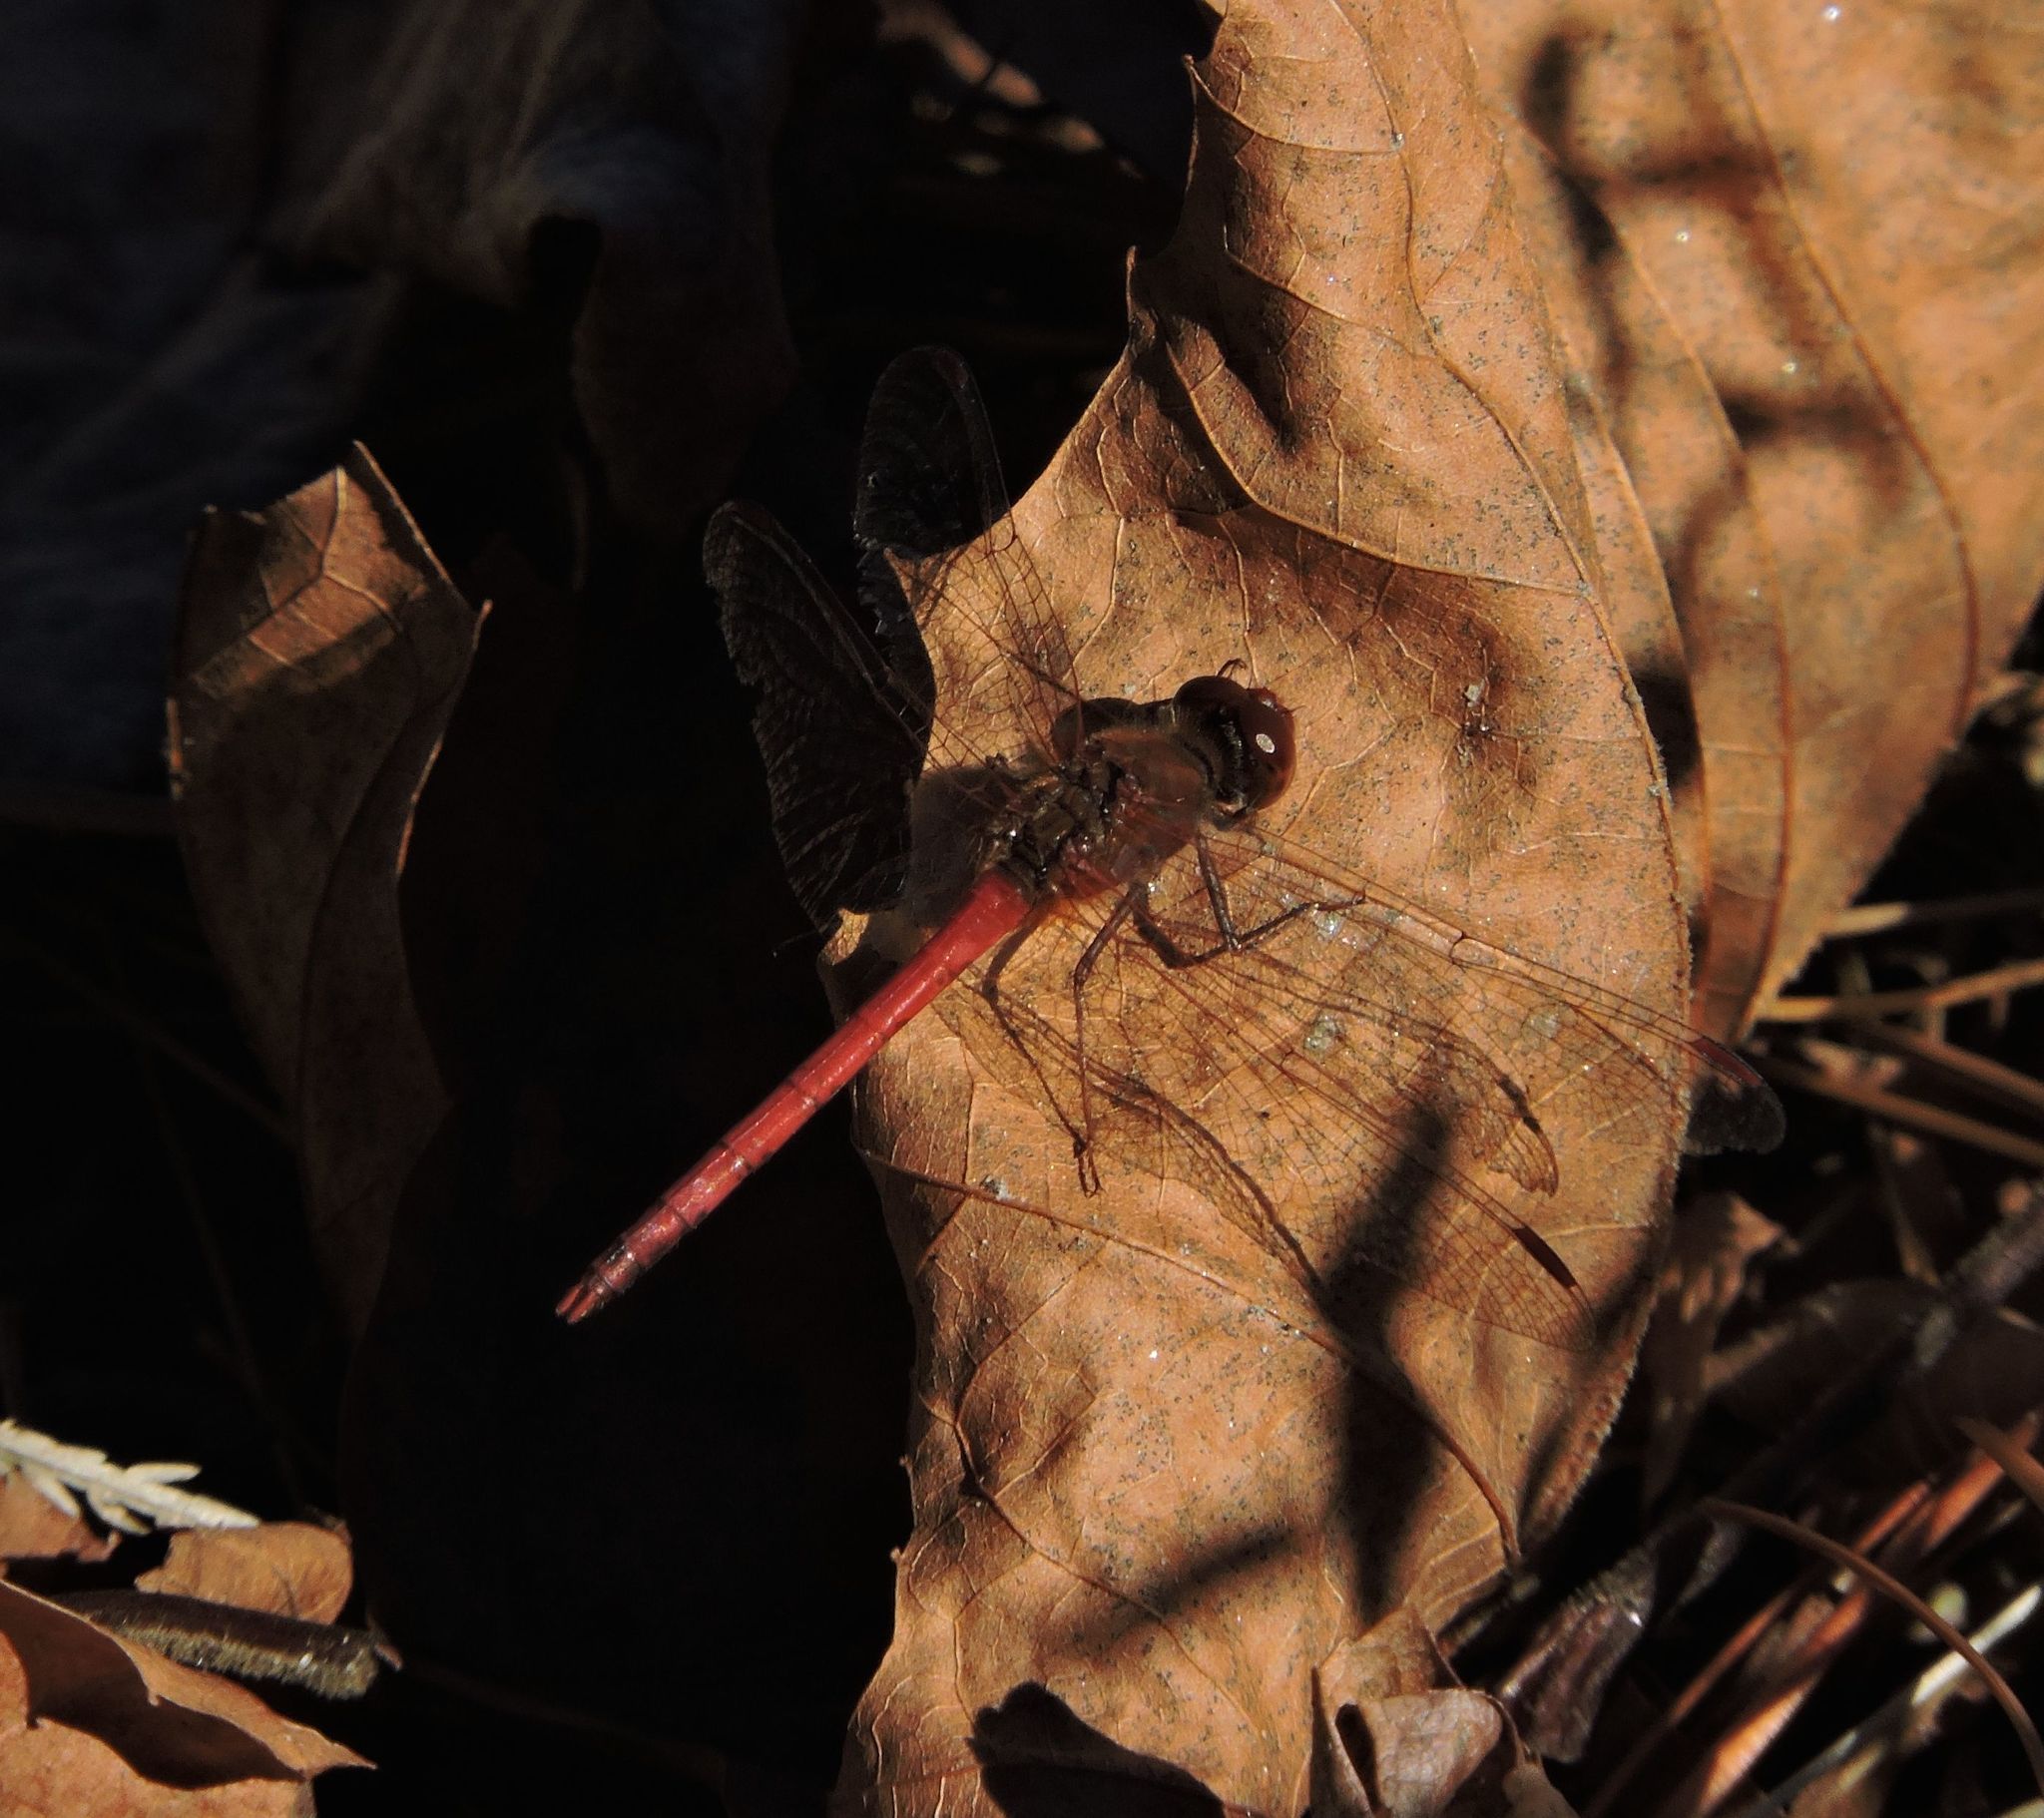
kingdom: Animalia
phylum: Arthropoda
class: Insecta
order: Odonata
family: Libellulidae
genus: Sympetrum
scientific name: Sympetrum vicinum
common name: Autumn meadowhawk
